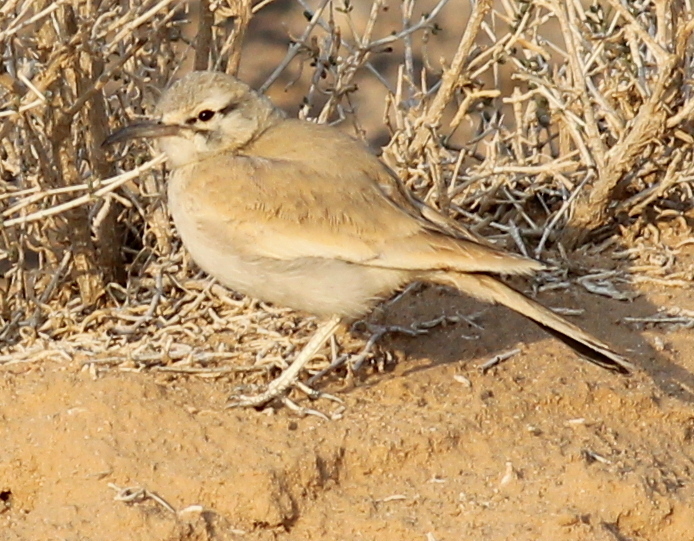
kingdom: Animalia
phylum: Chordata
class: Aves
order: Passeriformes
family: Alaudidae
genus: Alaemon
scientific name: Alaemon alaudipes
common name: Greater hoopoe-lark
